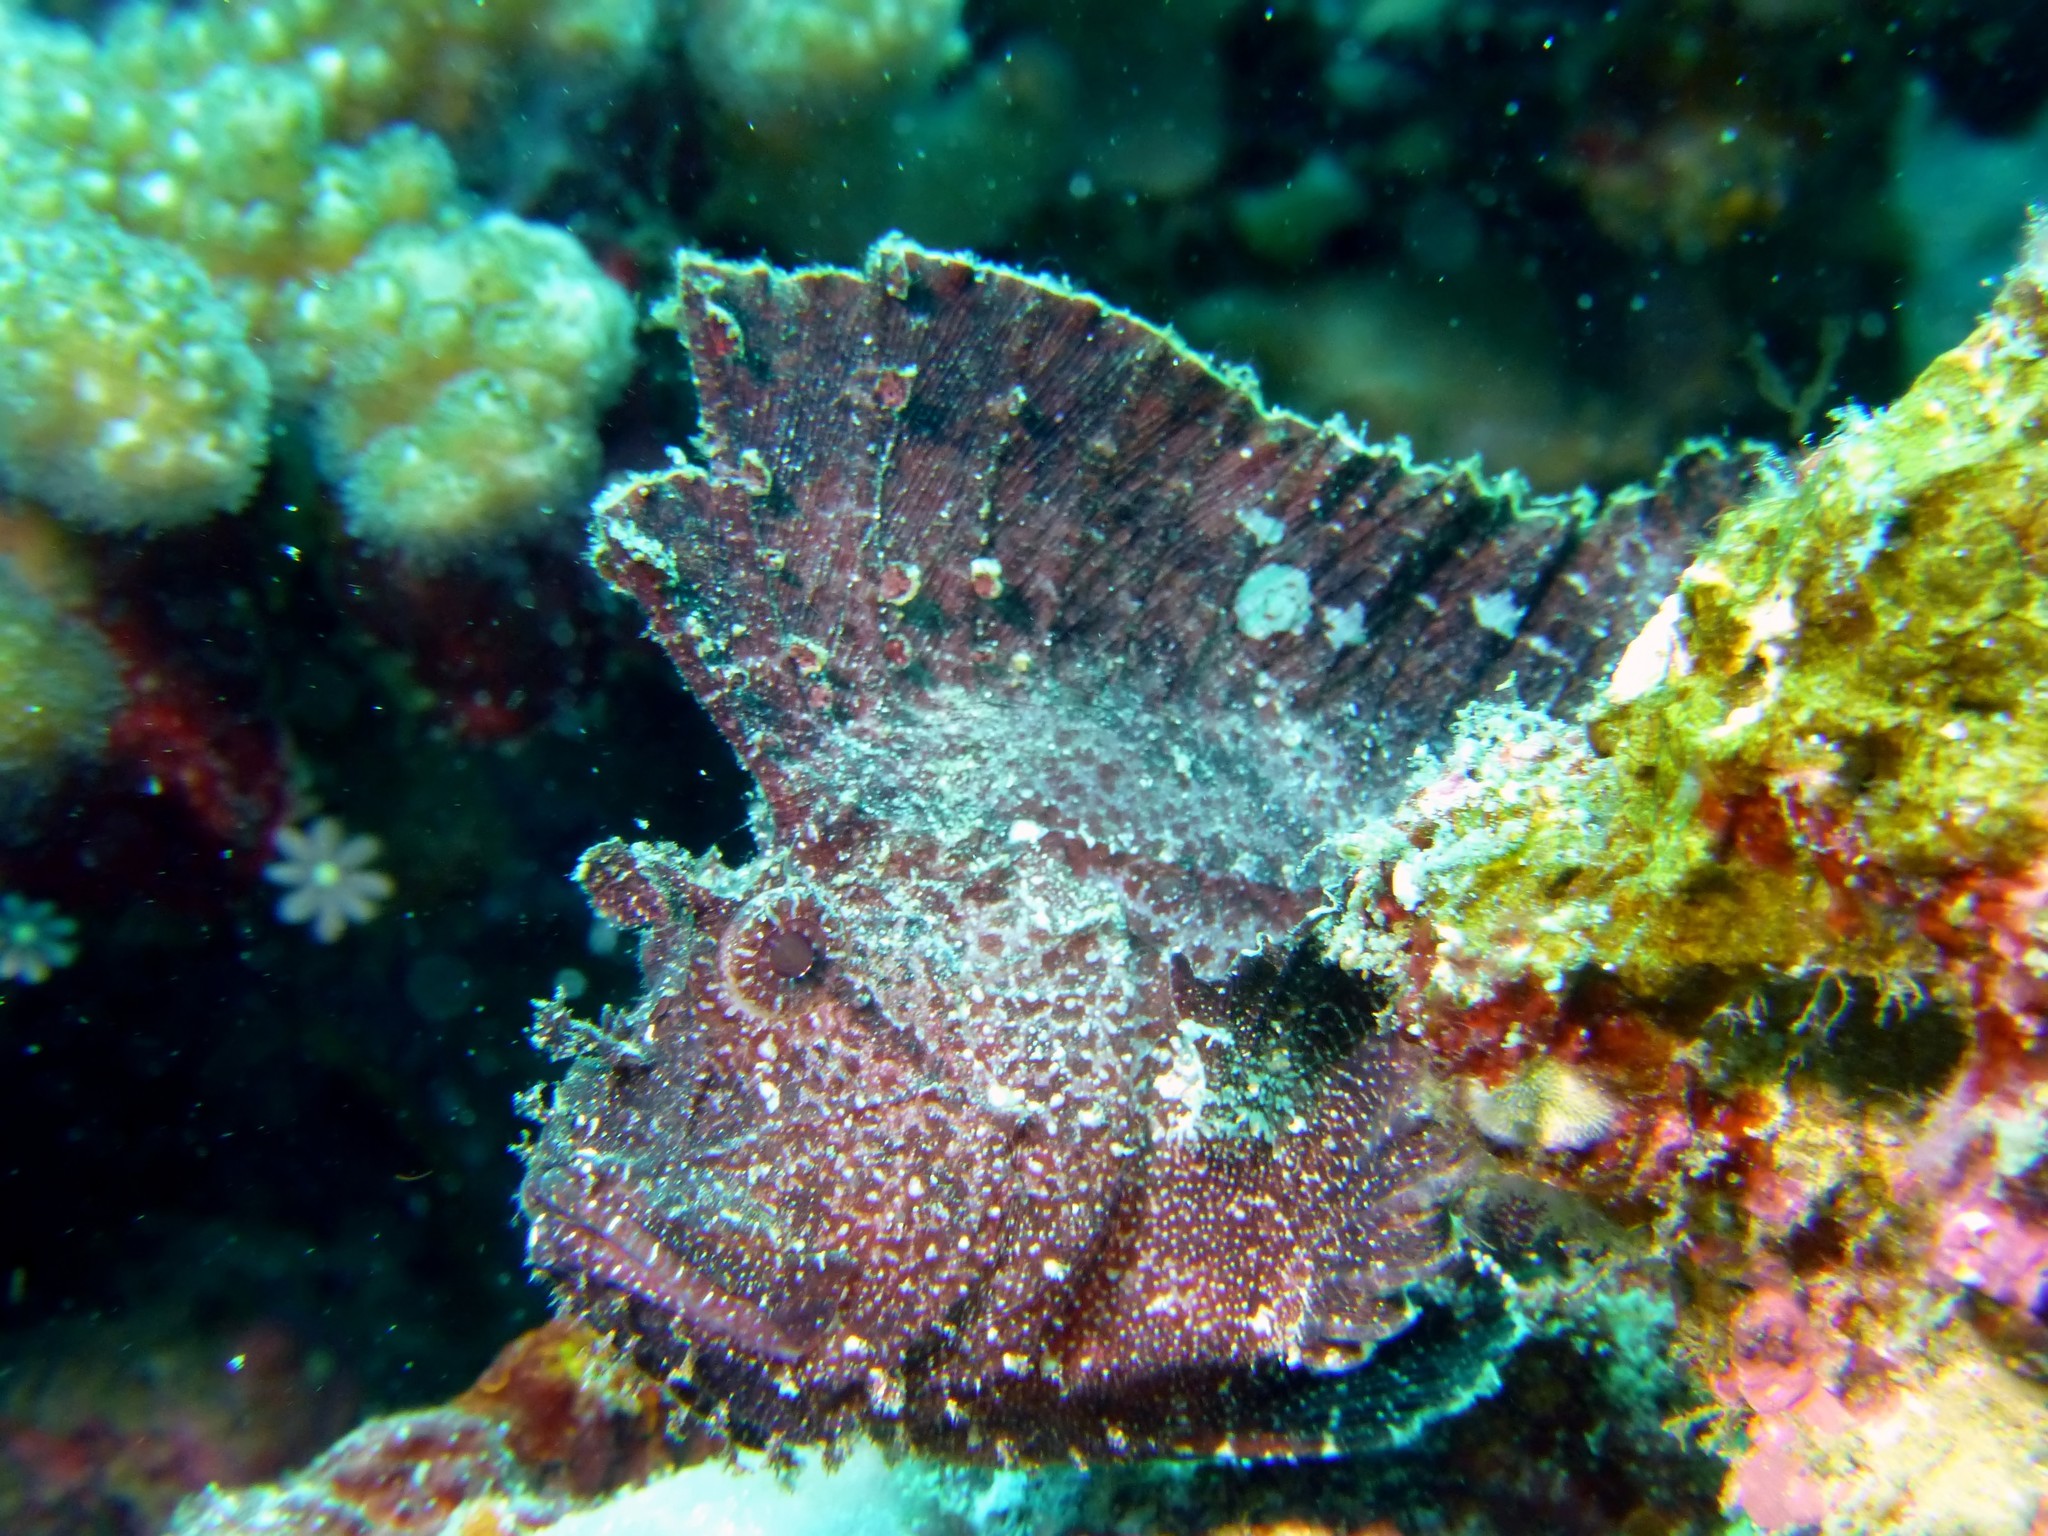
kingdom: Animalia
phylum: Chordata
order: Scorpaeniformes
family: Scorpaenidae
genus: Taenianotus
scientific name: Taenianotus triacanthus
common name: Leaf scorpionfish
